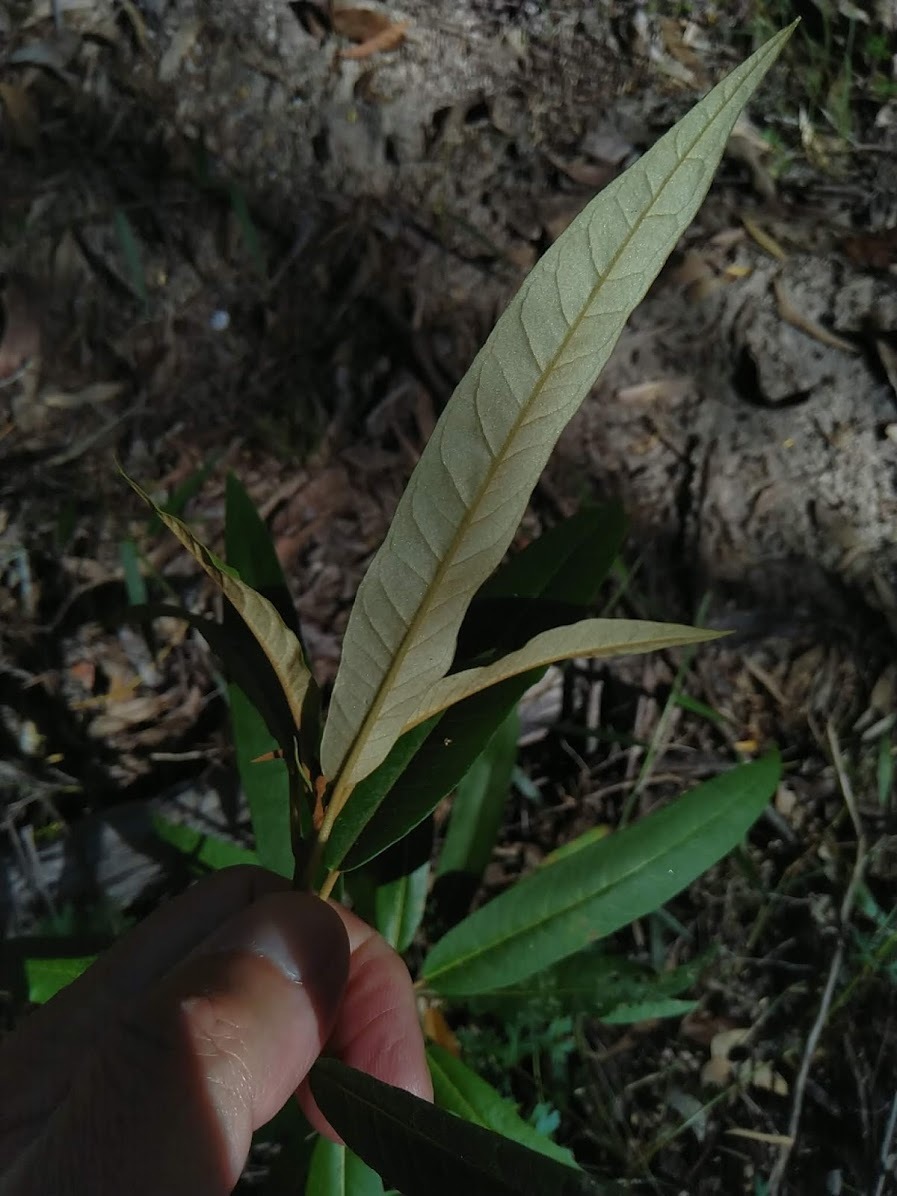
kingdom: Plantae
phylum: Tracheophyta
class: Magnoliopsida
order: Apiales
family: Araliaceae
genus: Astrotricha
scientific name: Astrotricha umbrosa
